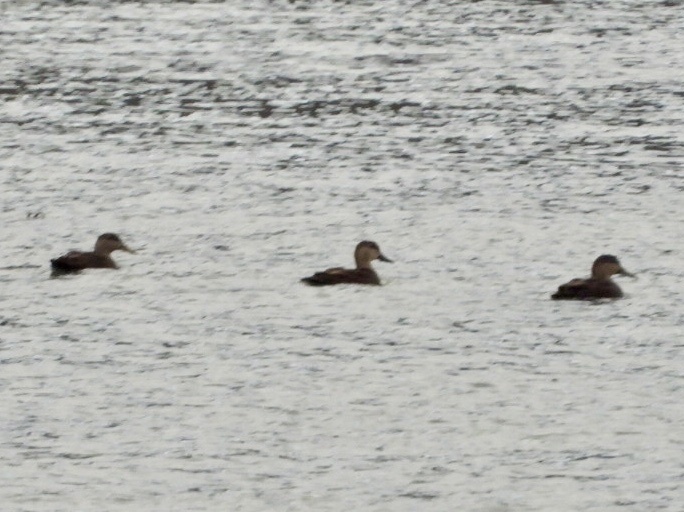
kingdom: Animalia
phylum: Chordata
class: Aves
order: Anseriformes
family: Anatidae
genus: Anas
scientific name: Anas rubripes
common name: American black duck
